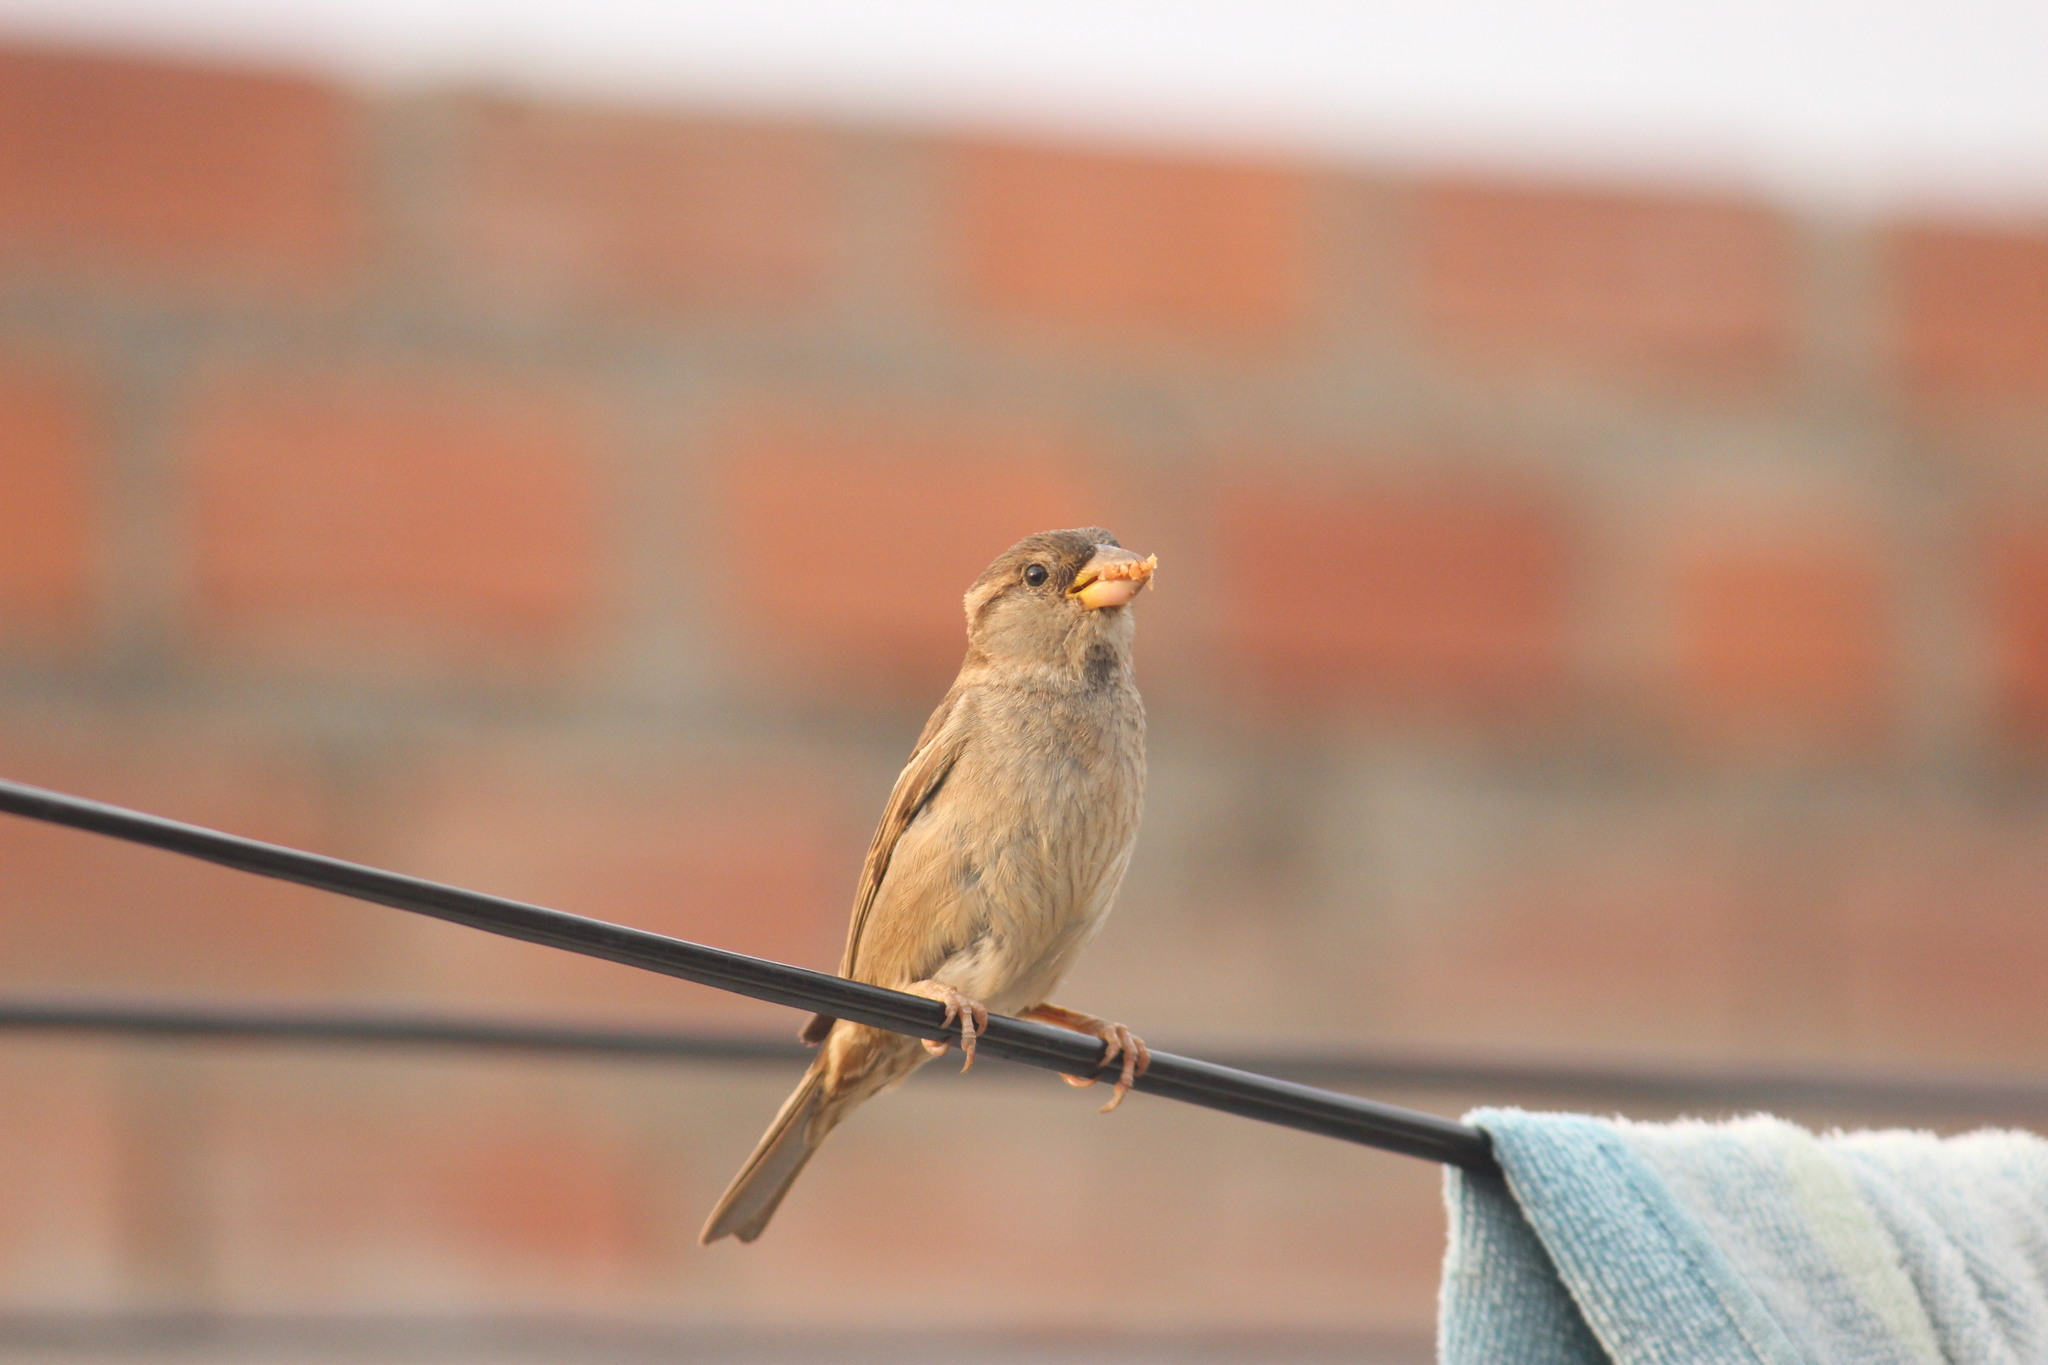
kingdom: Animalia
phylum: Chordata
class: Aves
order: Passeriformes
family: Passeridae
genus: Passer
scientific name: Passer domesticus
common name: House sparrow
